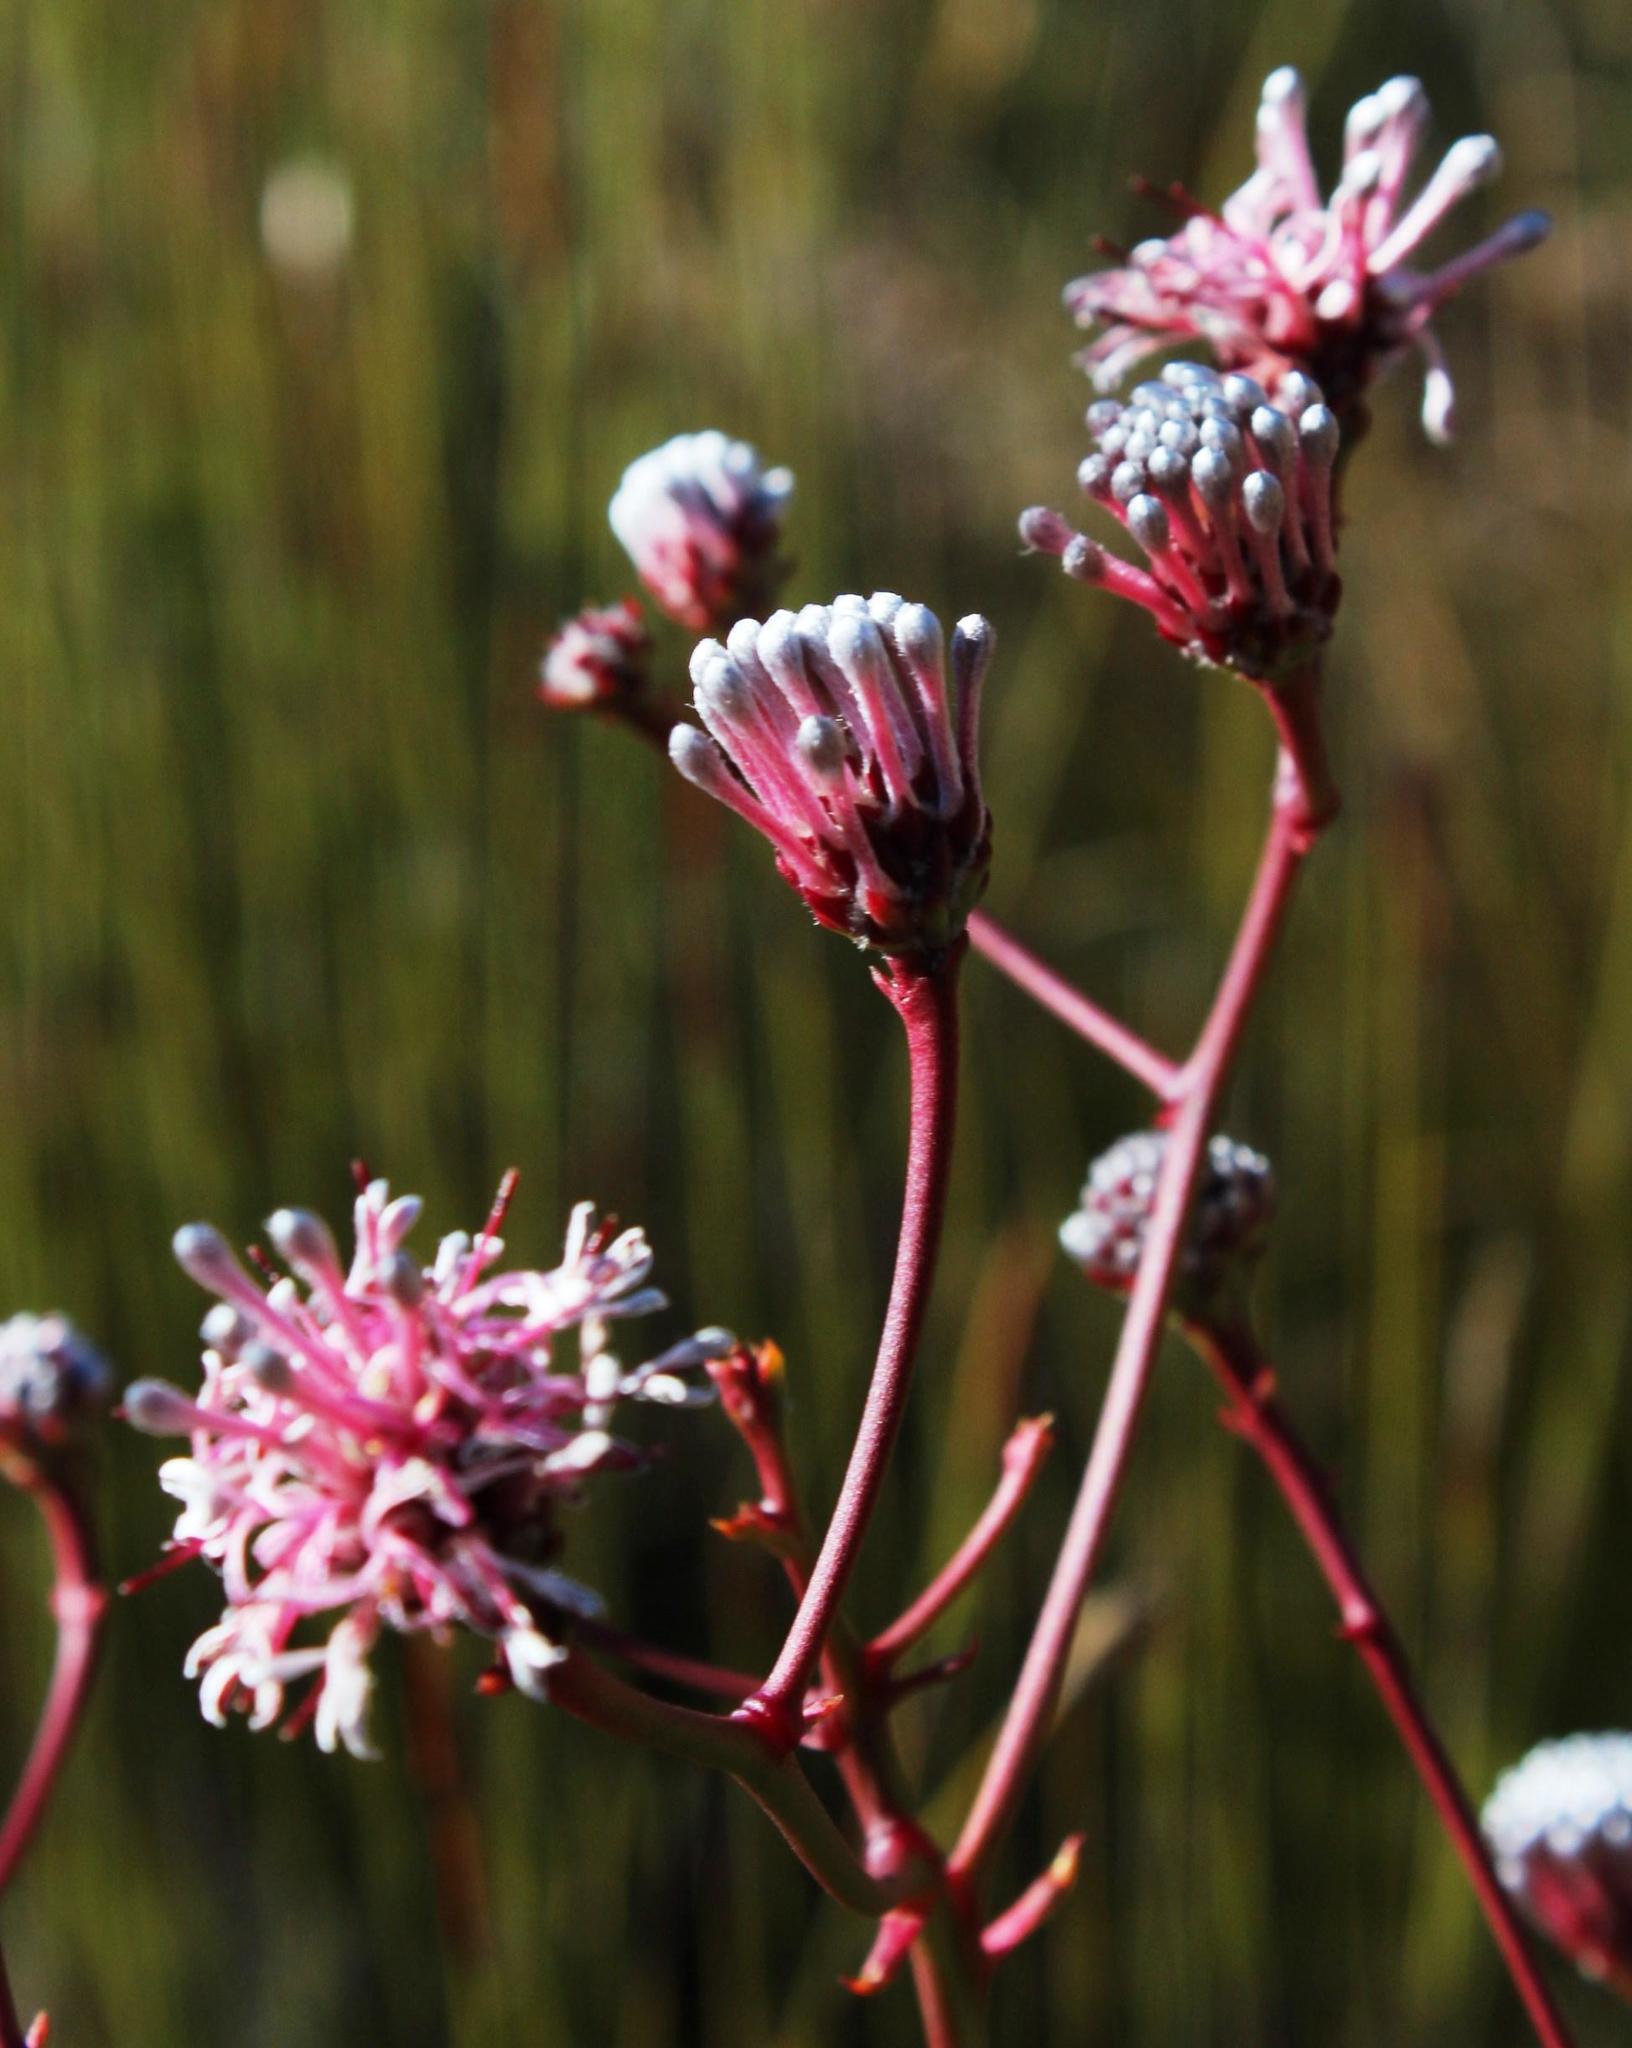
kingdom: Plantae
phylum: Tracheophyta
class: Magnoliopsida
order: Proteales
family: Proteaceae
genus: Serruria
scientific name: Serruria williamsii
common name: King spiderhead
